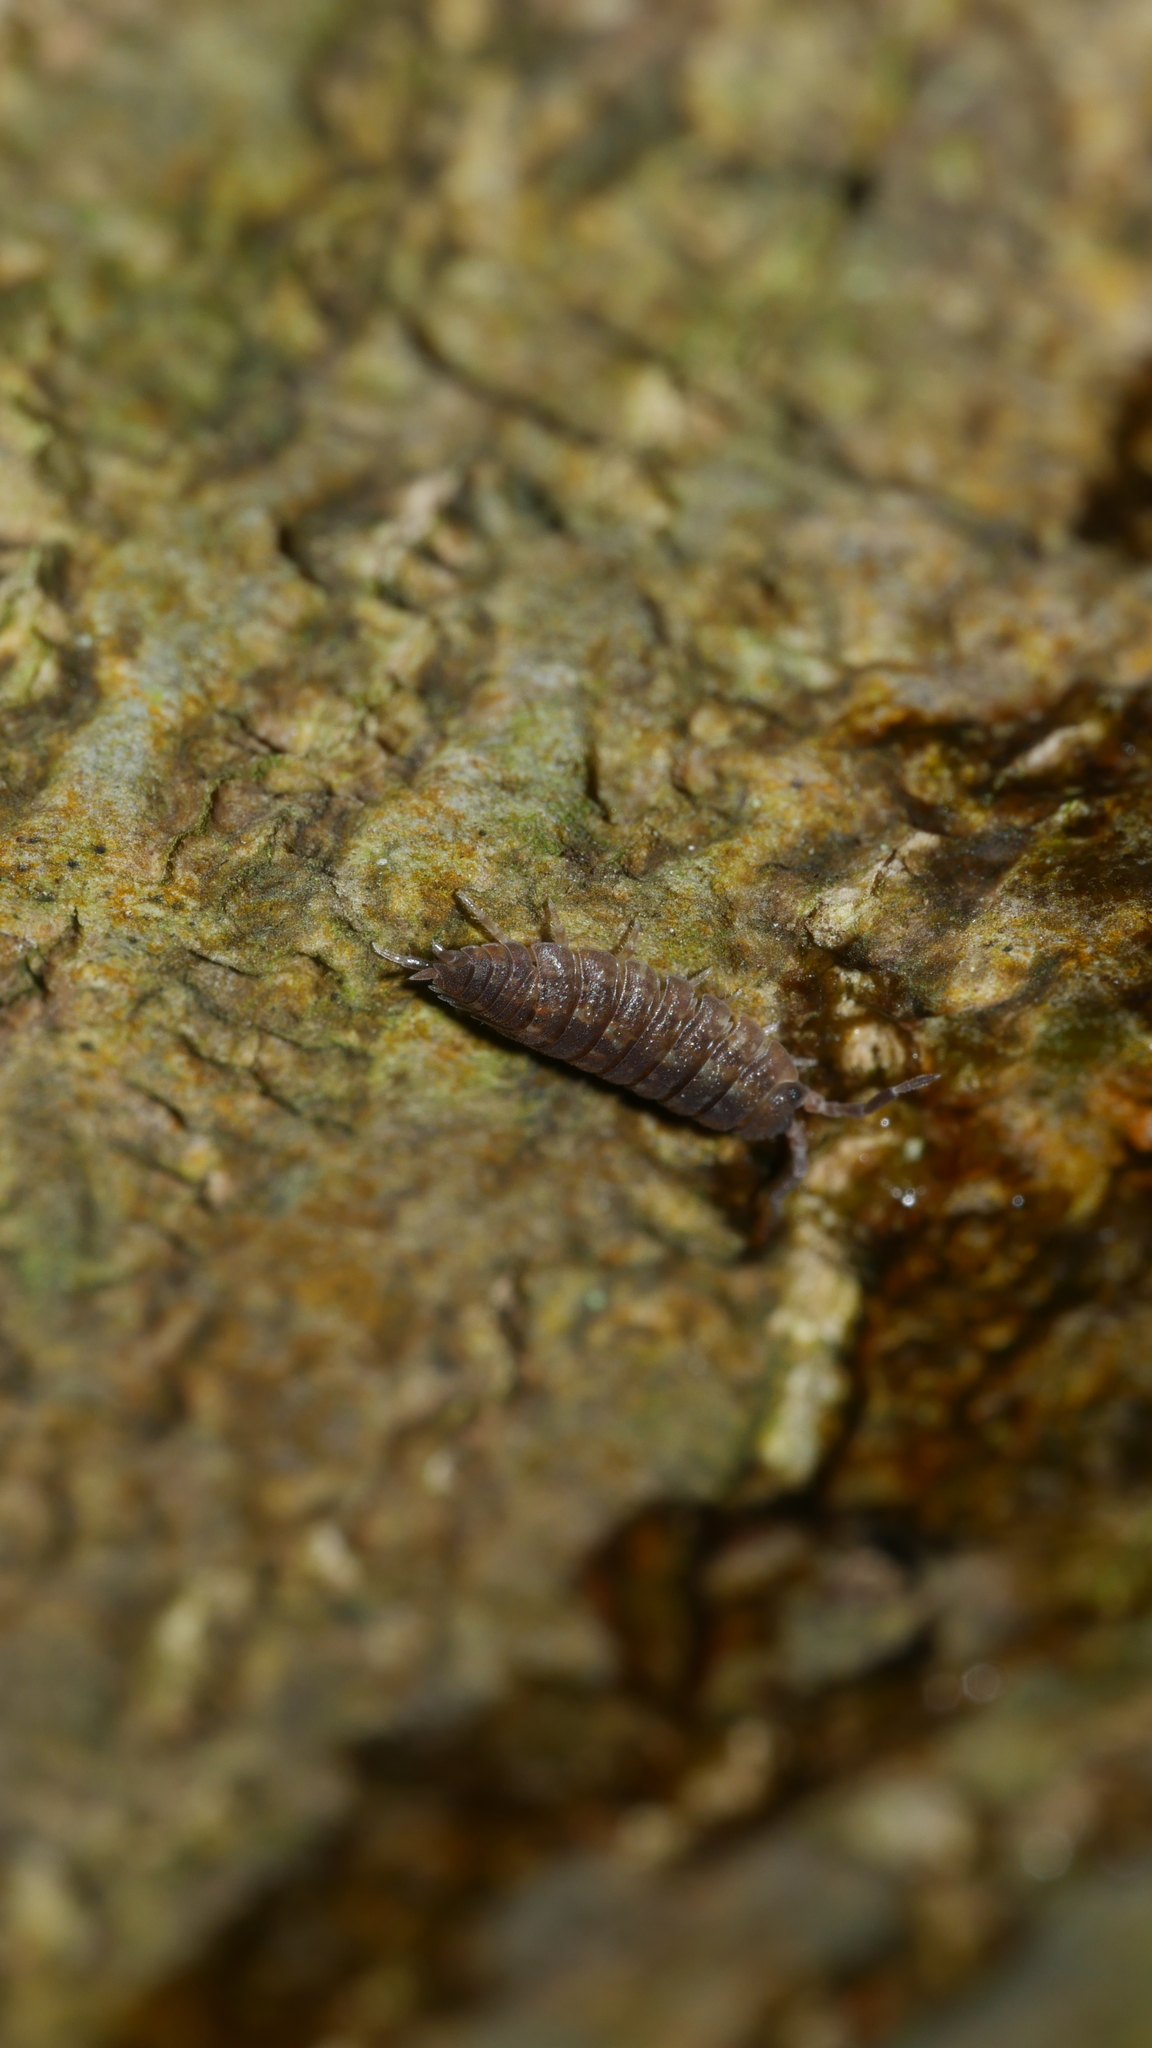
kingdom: Animalia
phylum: Arthropoda
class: Malacostraca
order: Isopoda
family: Porcellionidae
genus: Porcellio
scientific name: Porcellio scaber
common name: Common rough woodlouse
